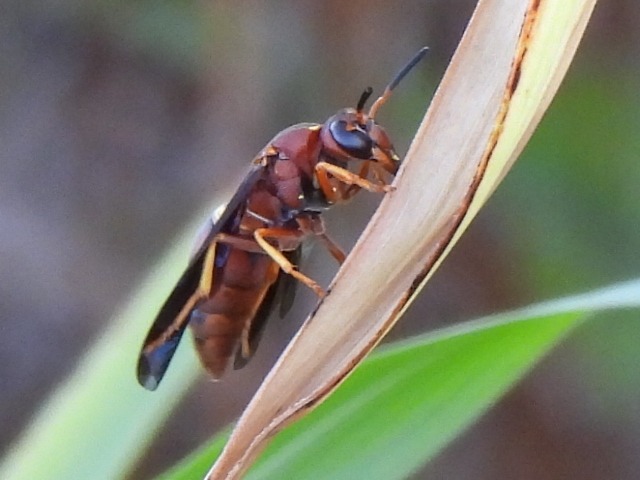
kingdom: Animalia
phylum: Arthropoda
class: Insecta
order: Hymenoptera
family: Eumenidae
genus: Euodynerus
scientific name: Euodynerus crypticus
